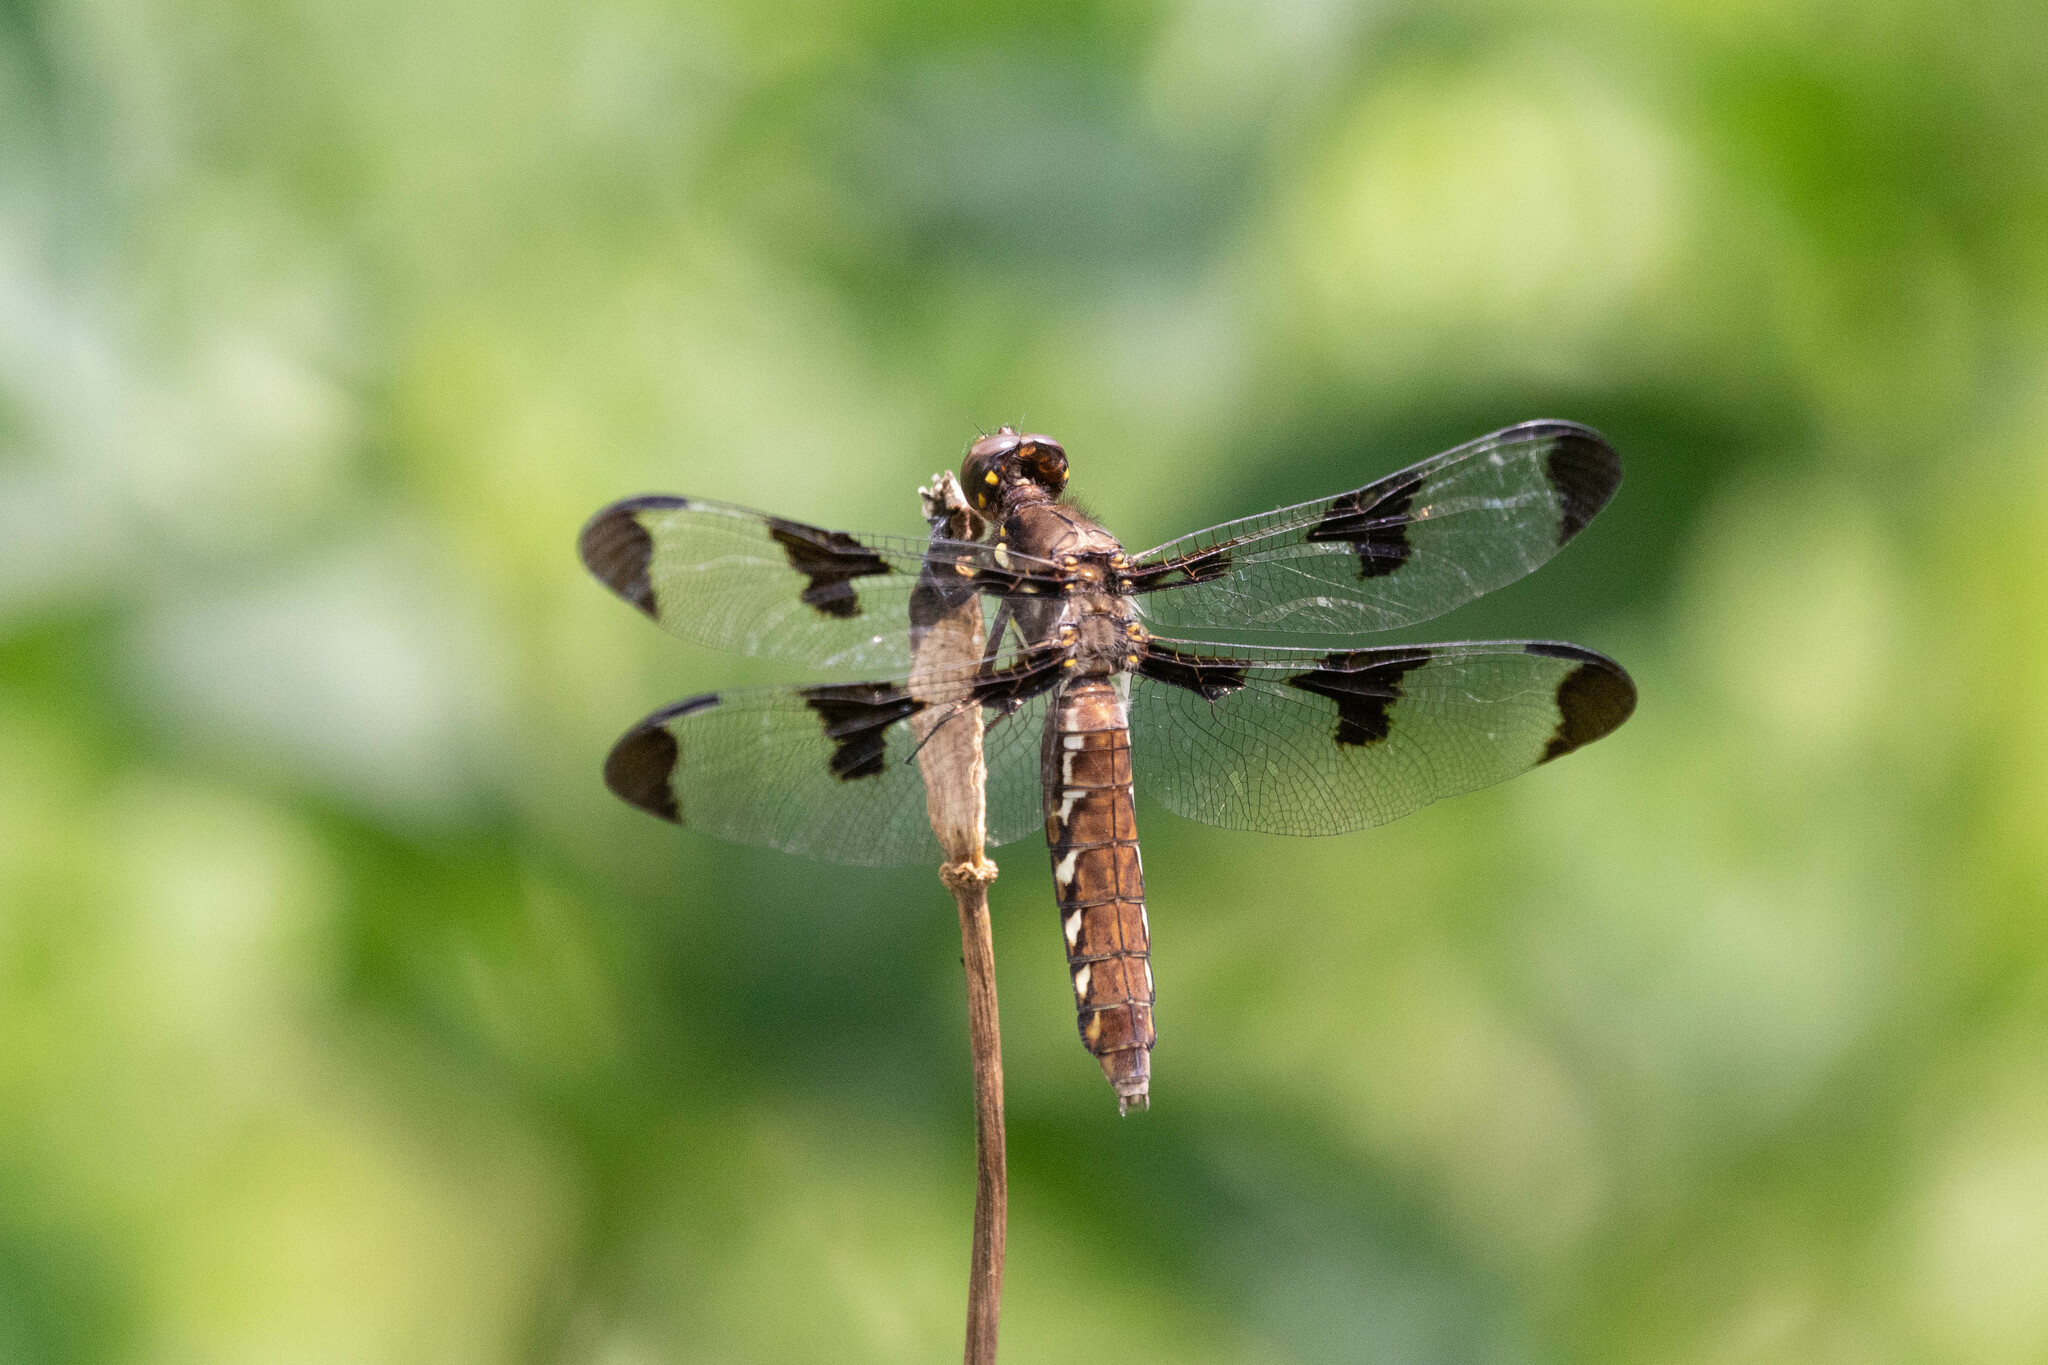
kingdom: Animalia
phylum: Arthropoda
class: Insecta
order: Odonata
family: Libellulidae
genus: Plathemis
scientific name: Plathemis lydia
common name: Common whitetail
